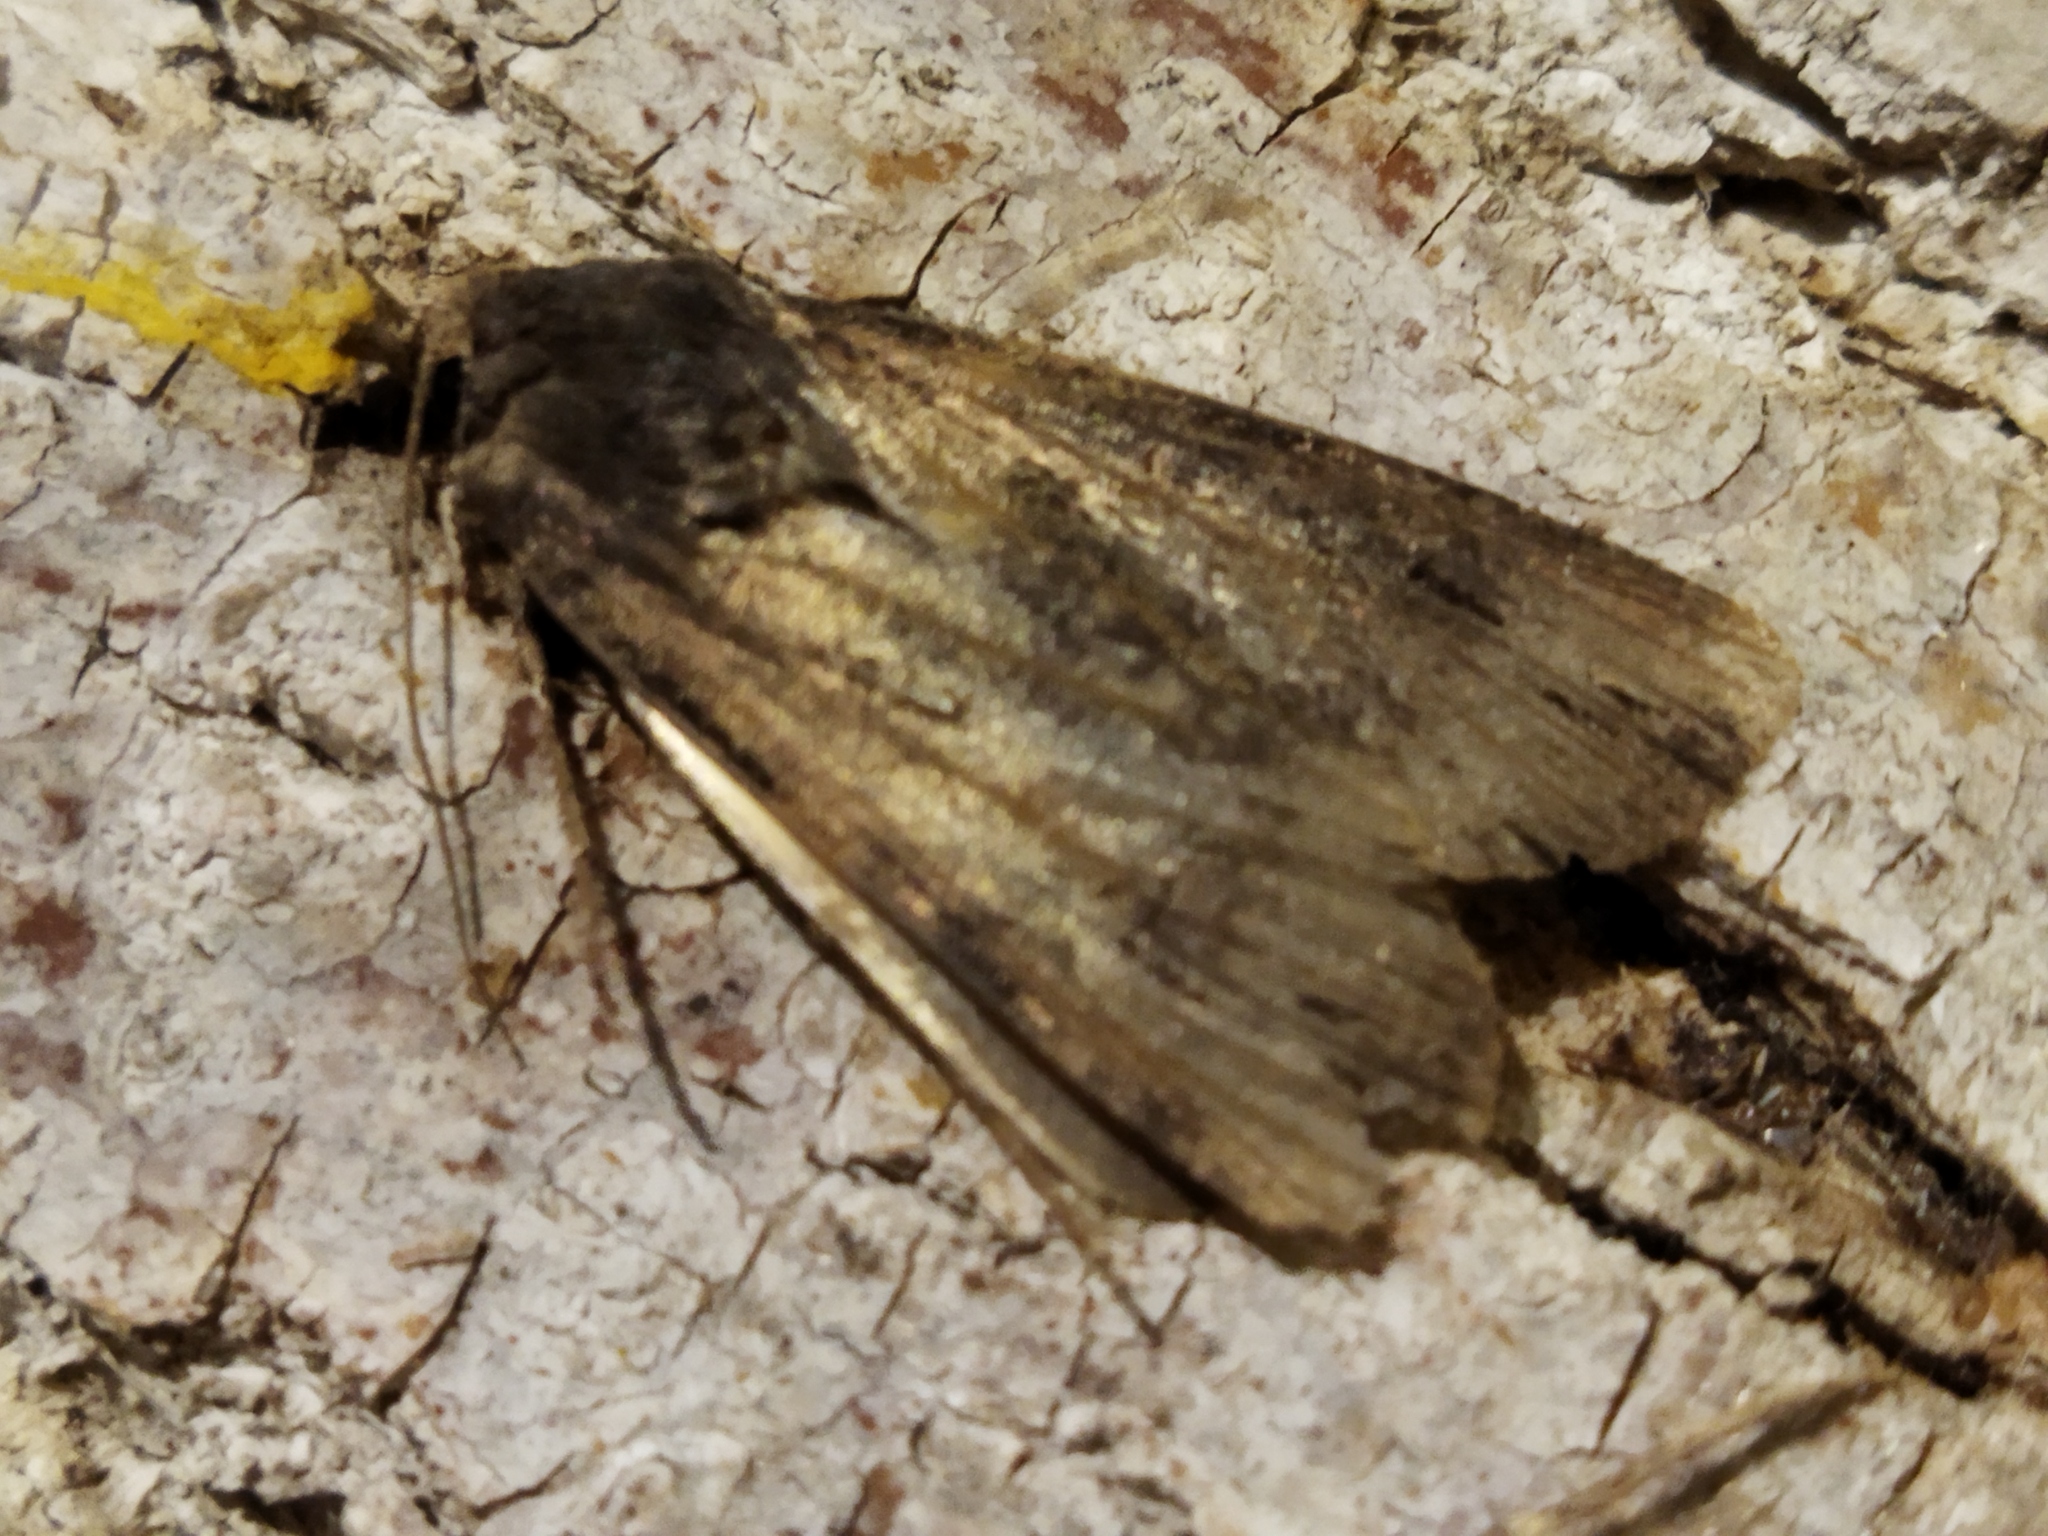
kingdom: Animalia
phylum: Arthropoda
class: Insecta
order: Lepidoptera
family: Noctuidae
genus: Agrotis
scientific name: Agrotis ipsilon
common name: Dark sword-grass
